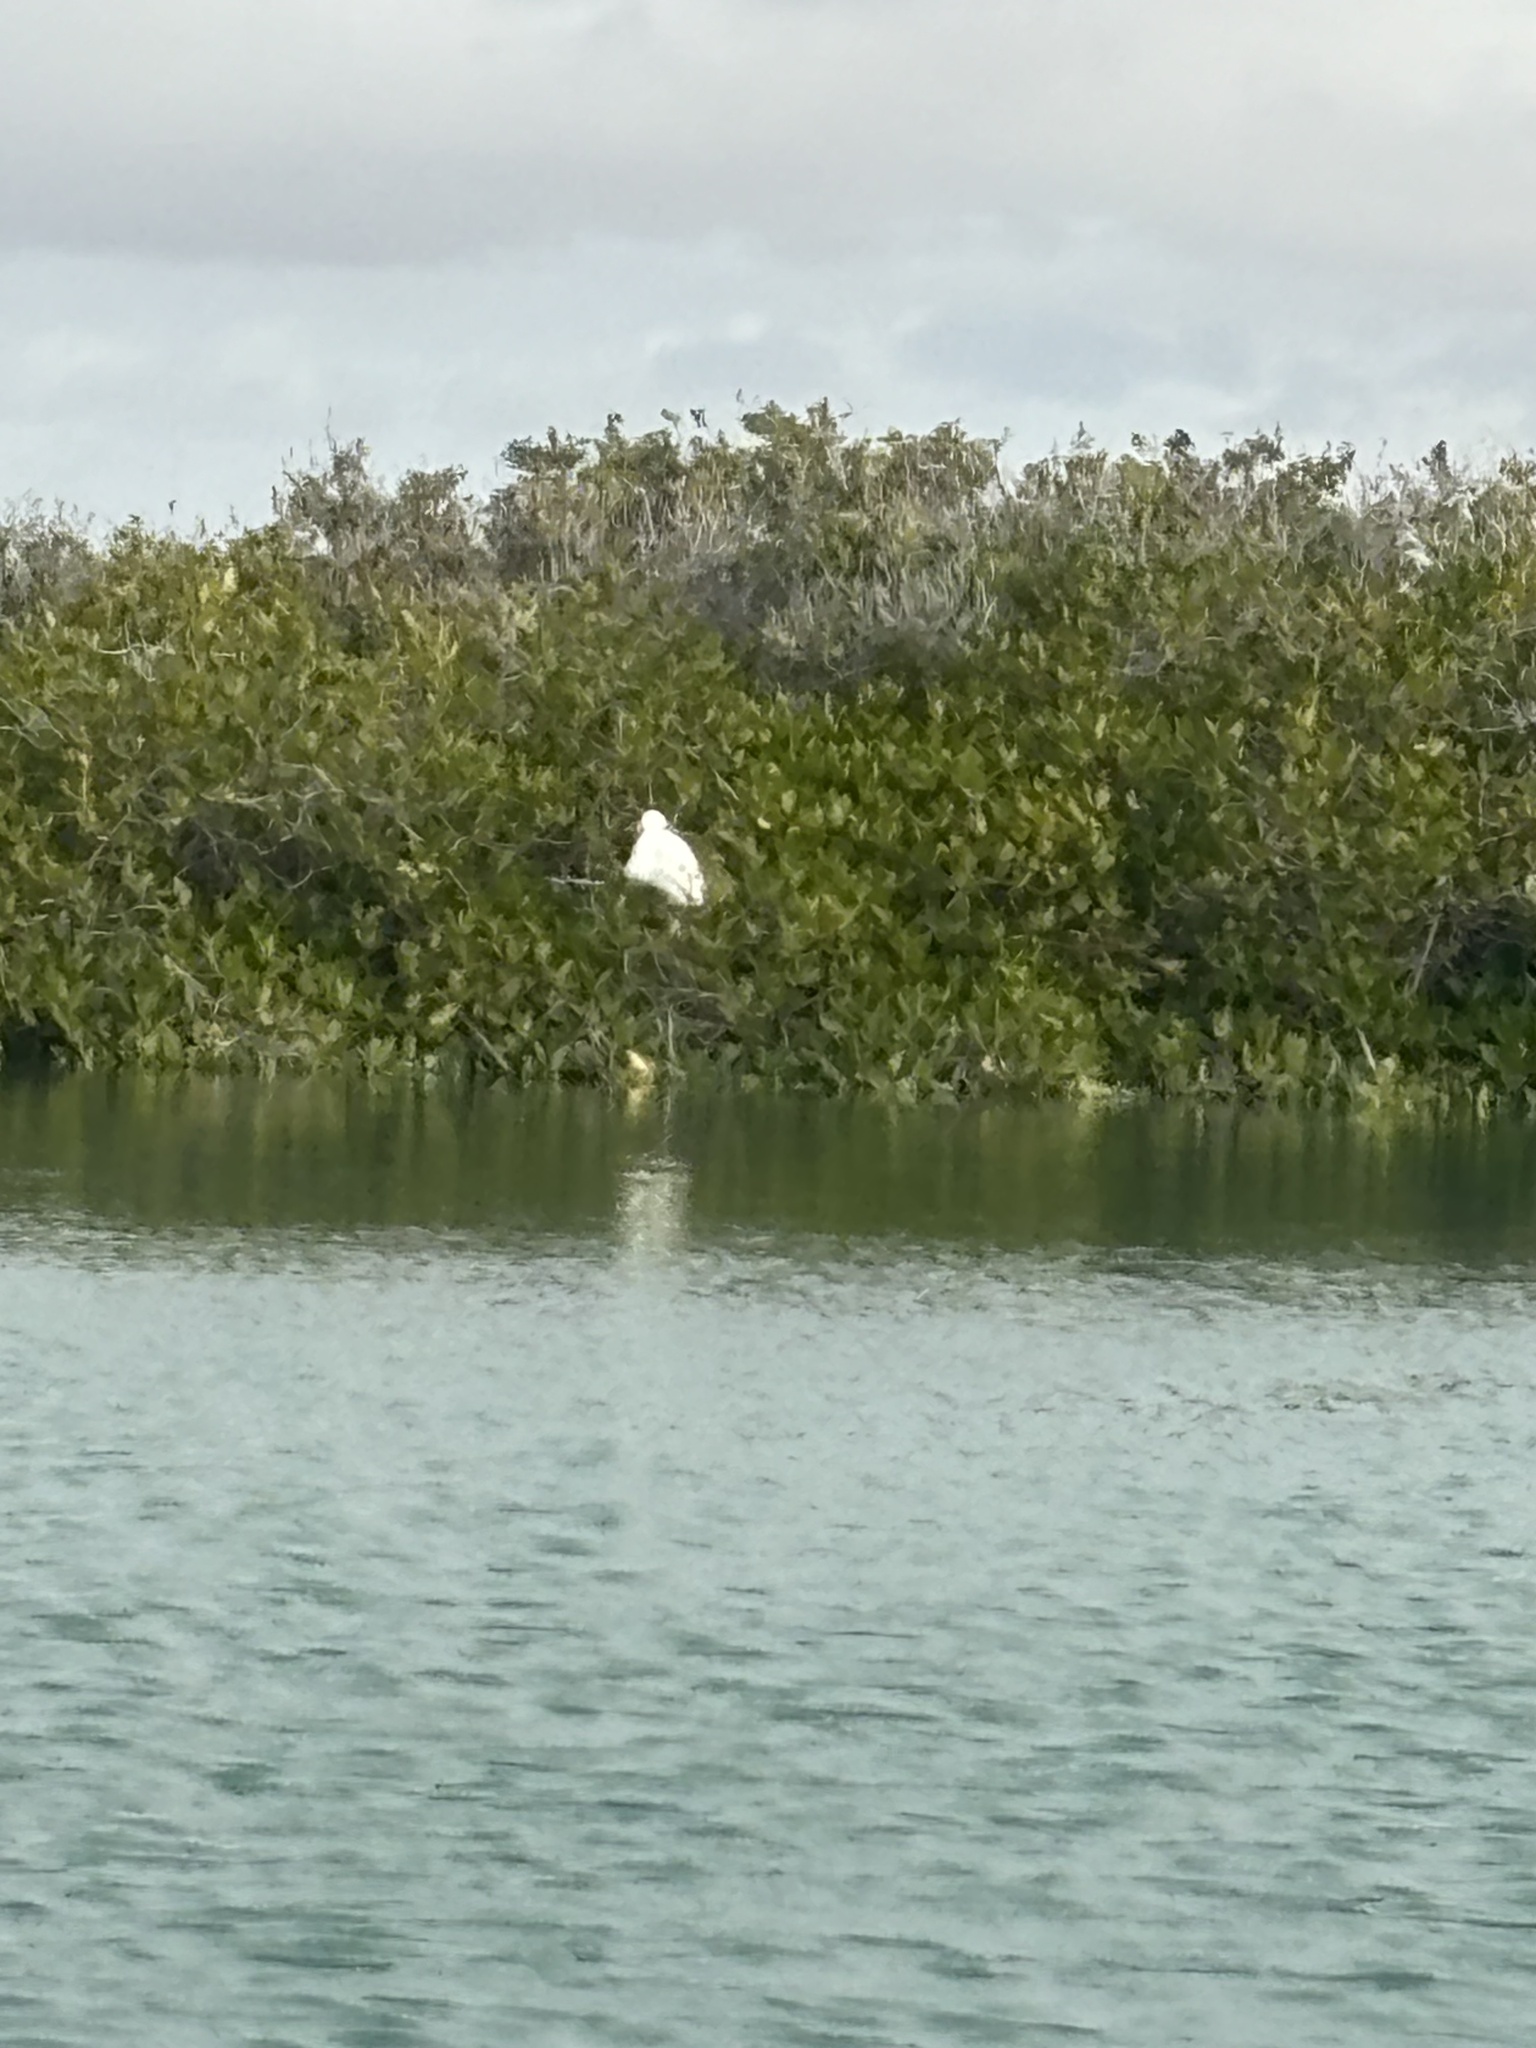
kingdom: Animalia
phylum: Chordata
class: Aves
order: Pelecaniformes
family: Ardeidae
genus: Ardea
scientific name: Ardea alba
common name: Great egret
